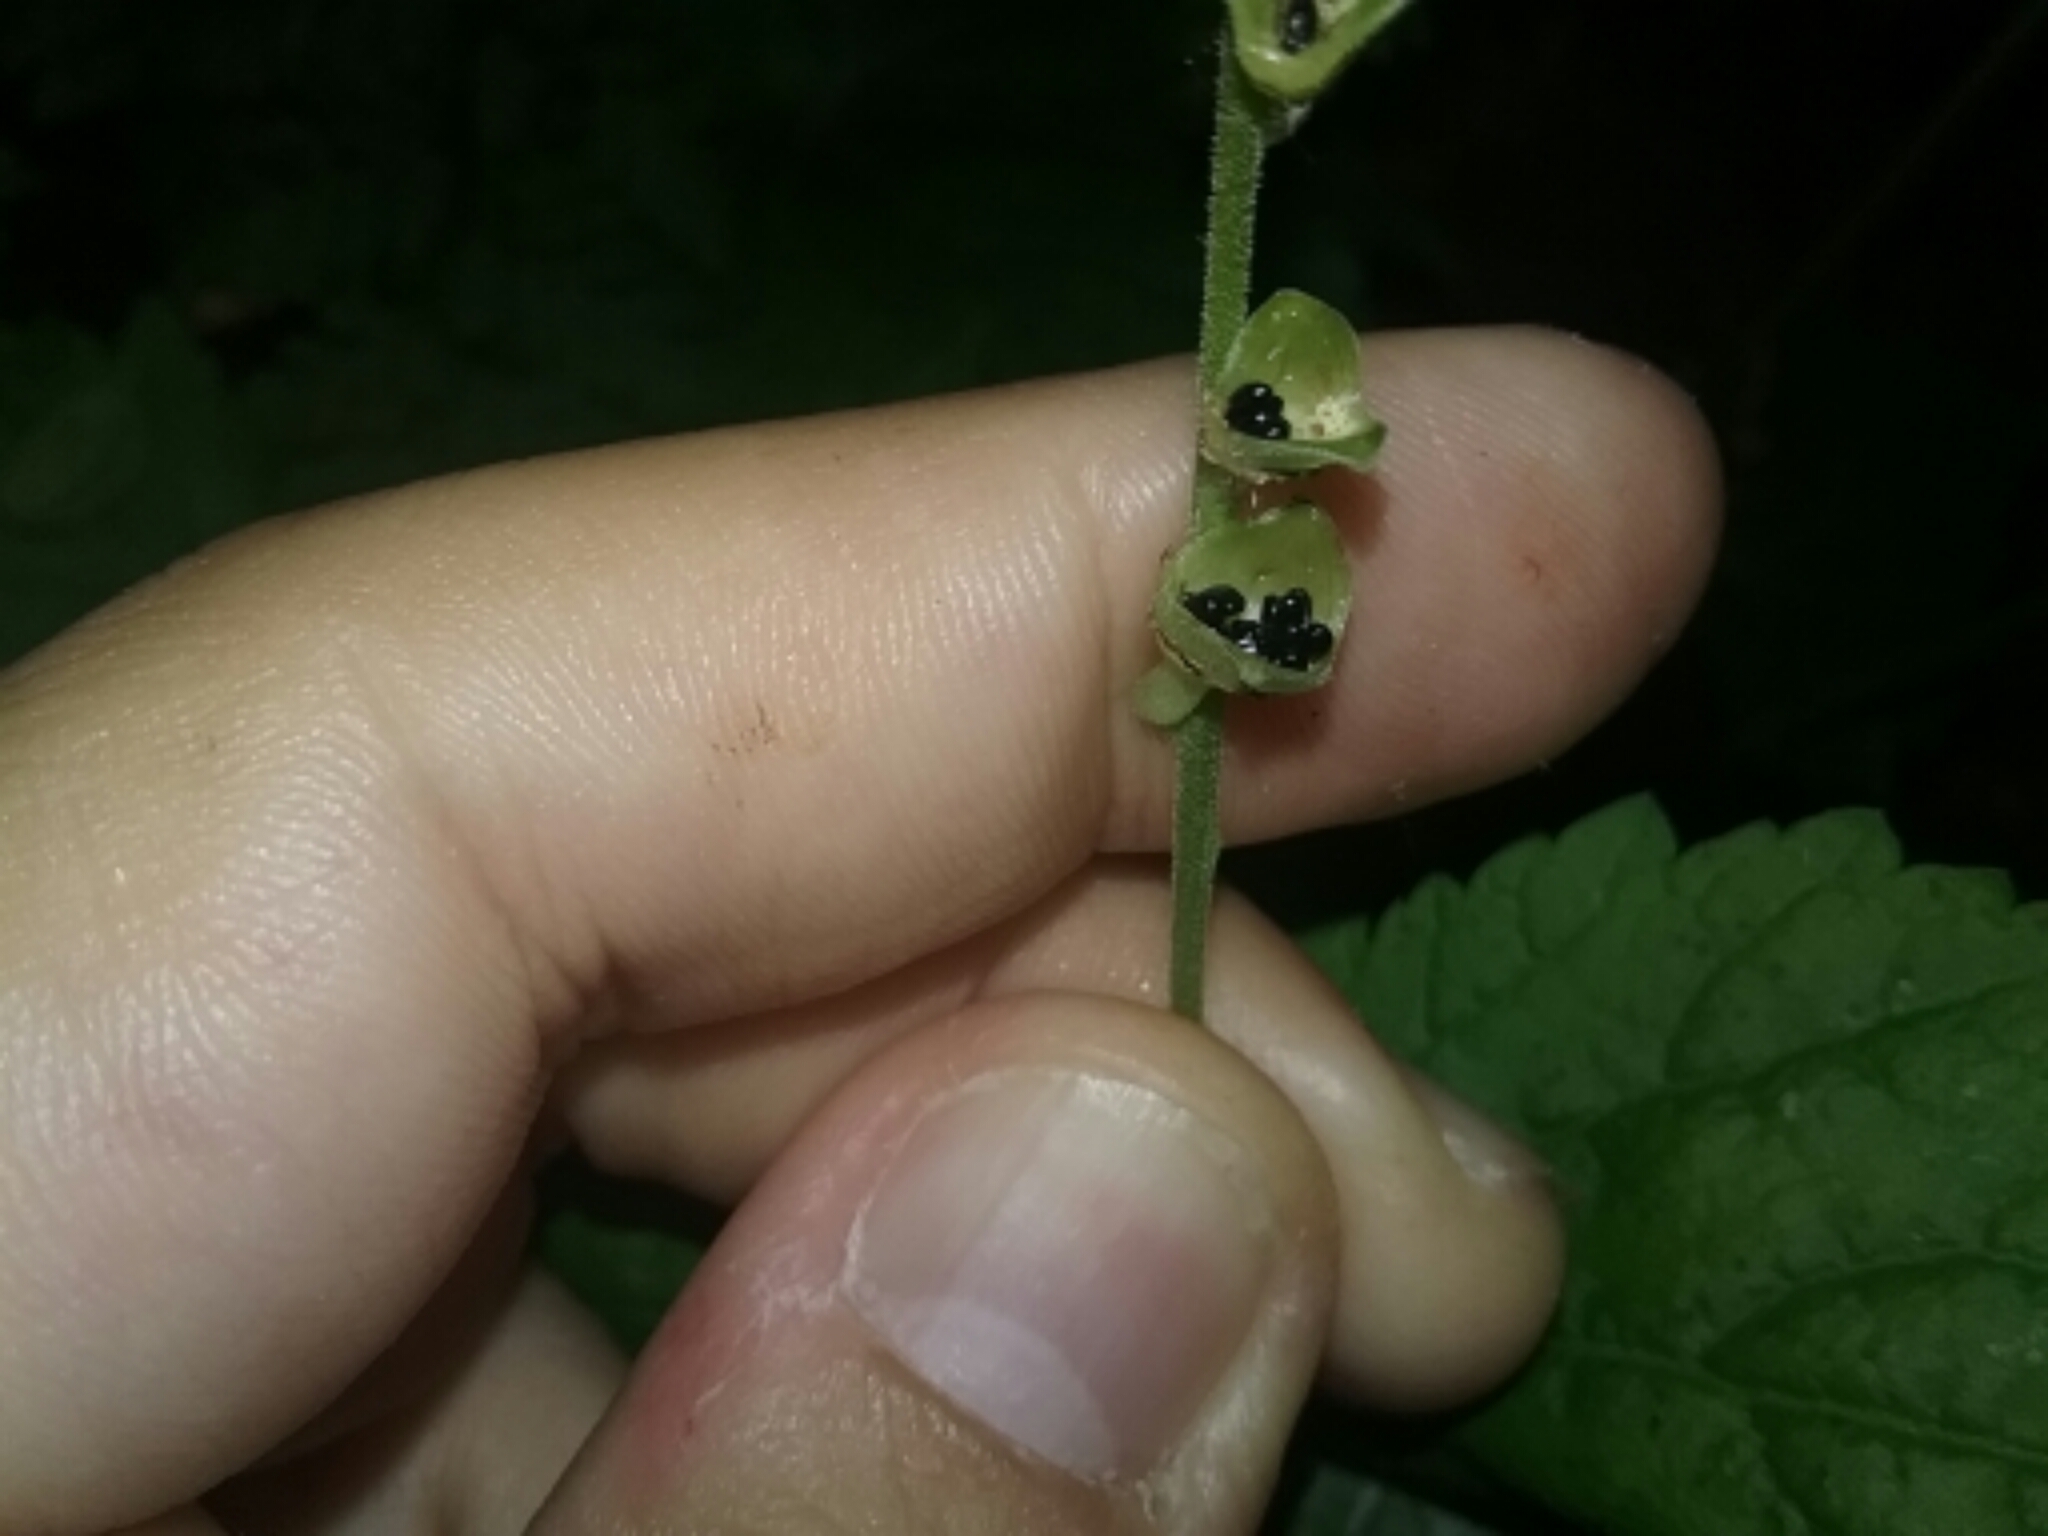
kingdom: Plantae
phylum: Tracheophyta
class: Magnoliopsida
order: Saxifragales
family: Saxifragaceae
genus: Mitella
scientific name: Mitella diphylla
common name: Coolwort
